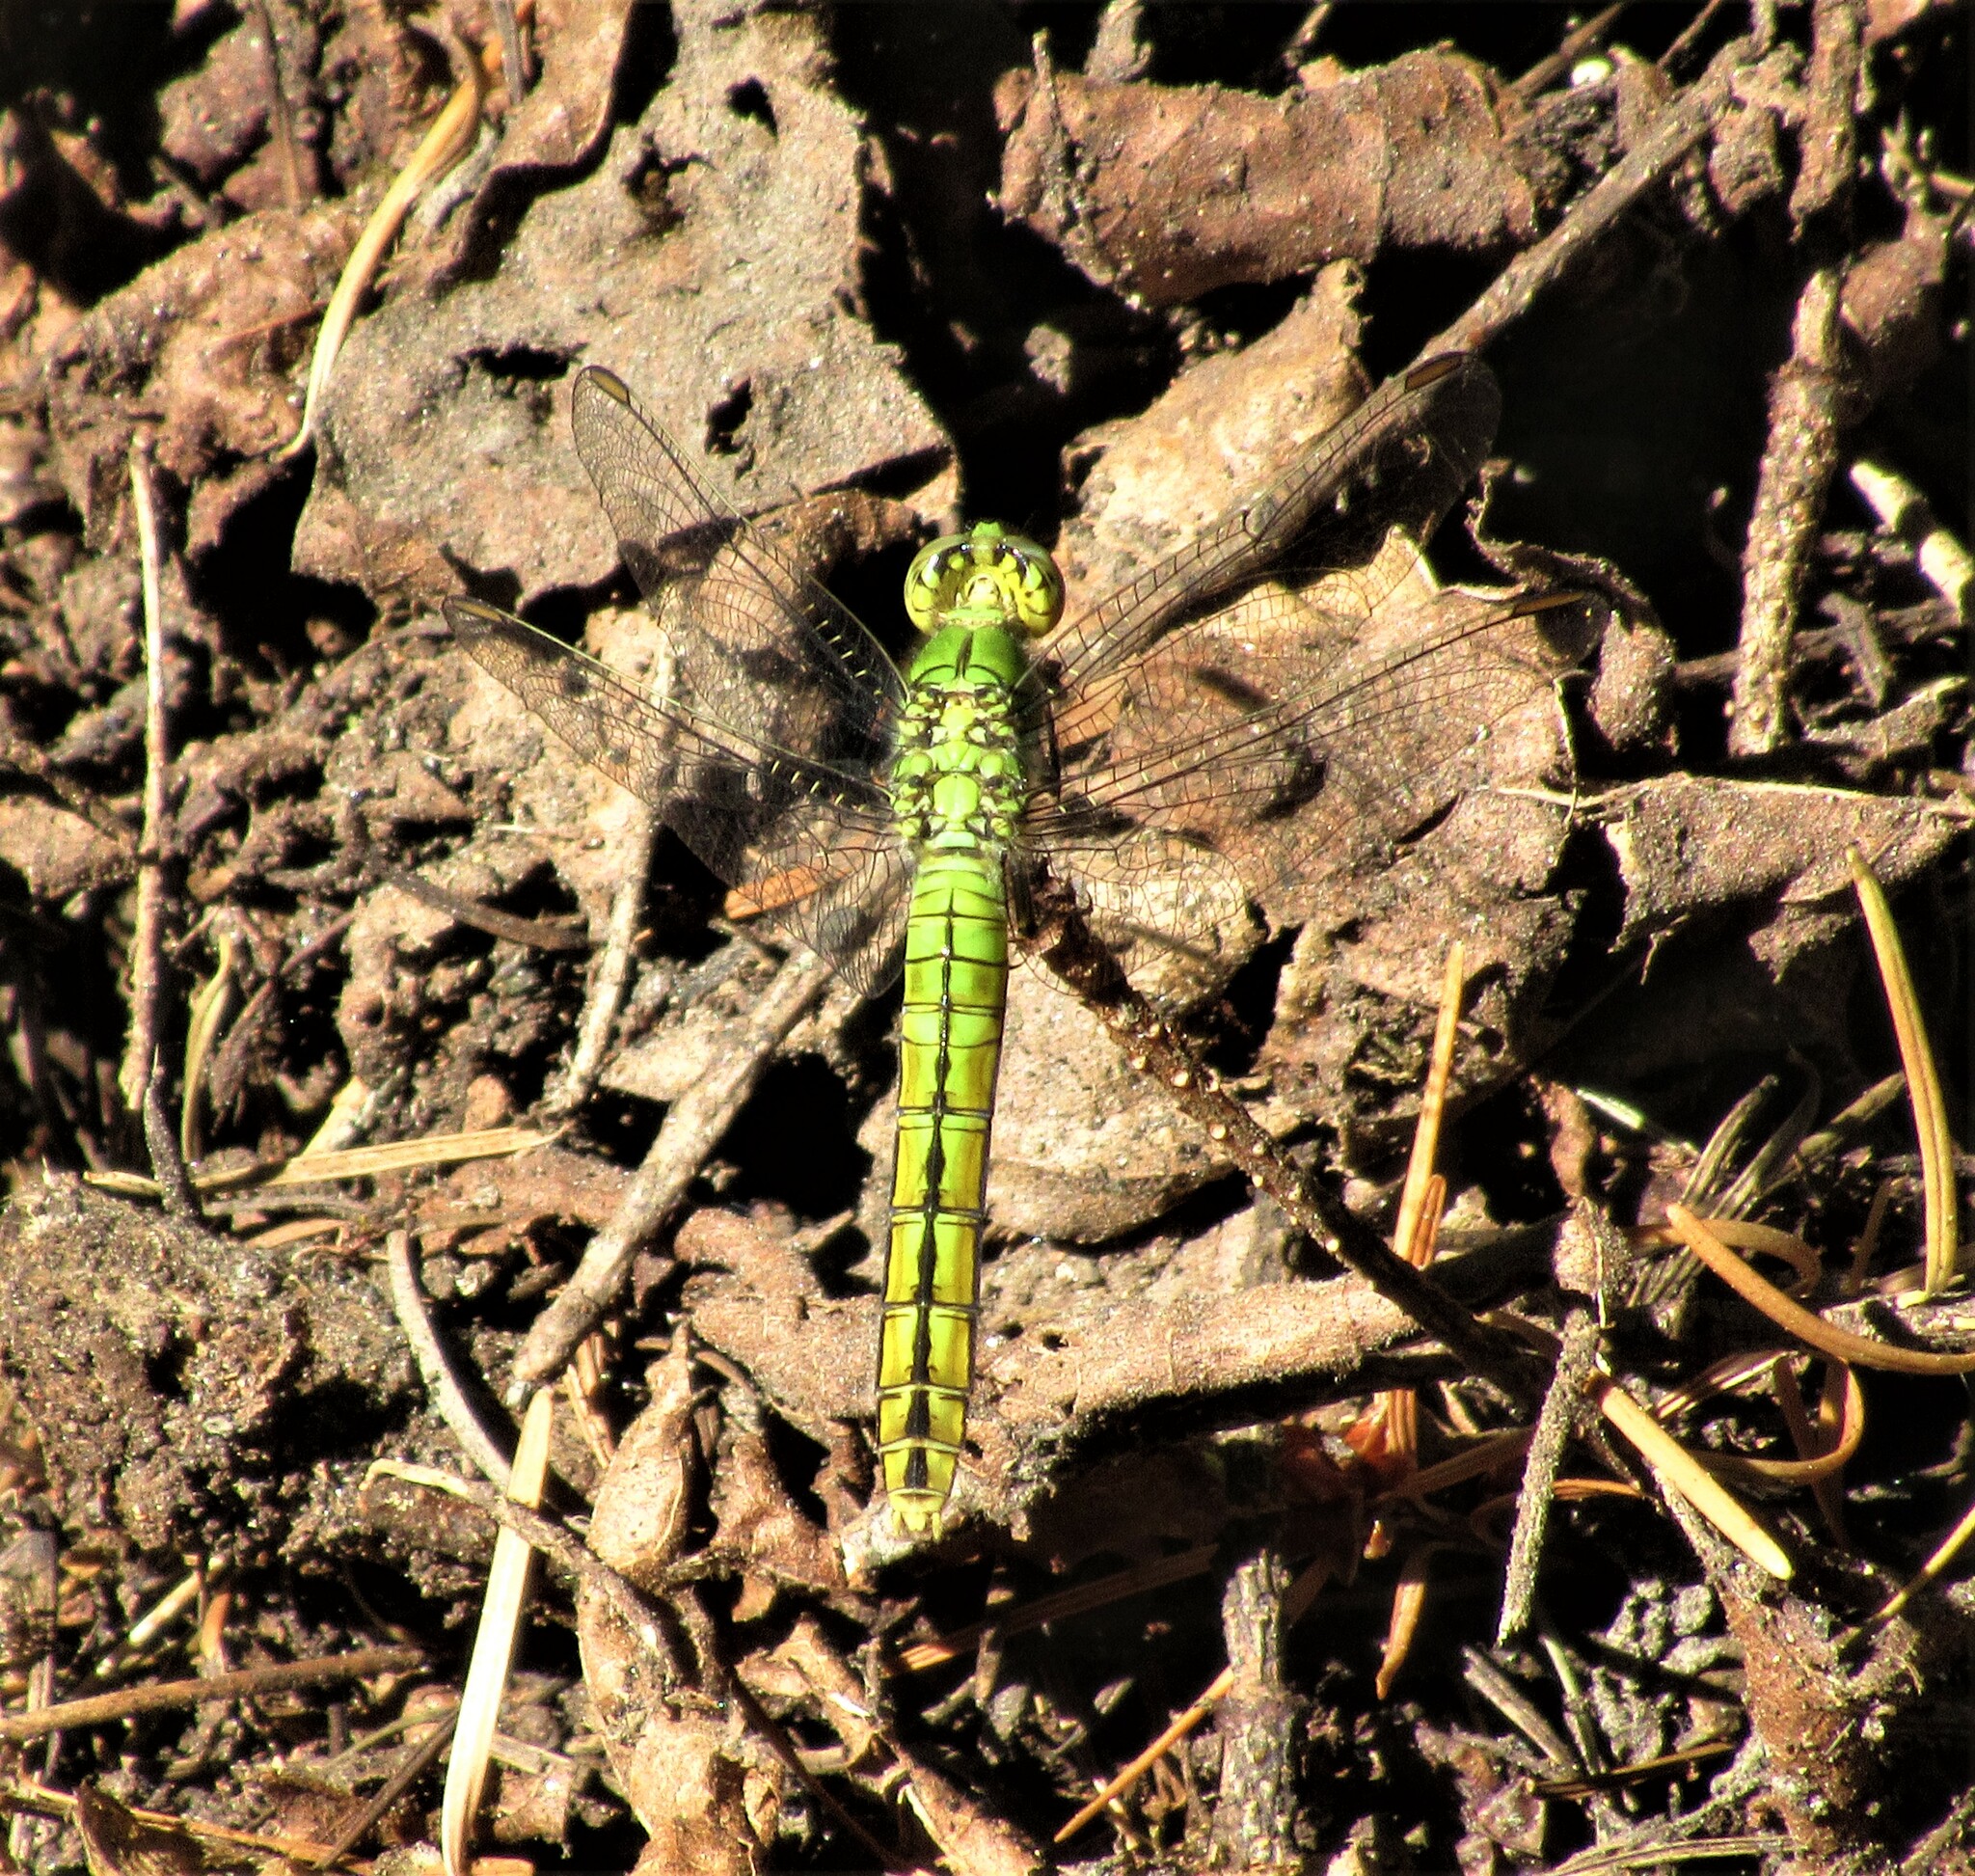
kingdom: Animalia
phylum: Arthropoda
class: Insecta
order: Odonata
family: Libellulidae
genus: Erythemis
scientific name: Erythemis collocata
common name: Western pondhawk
